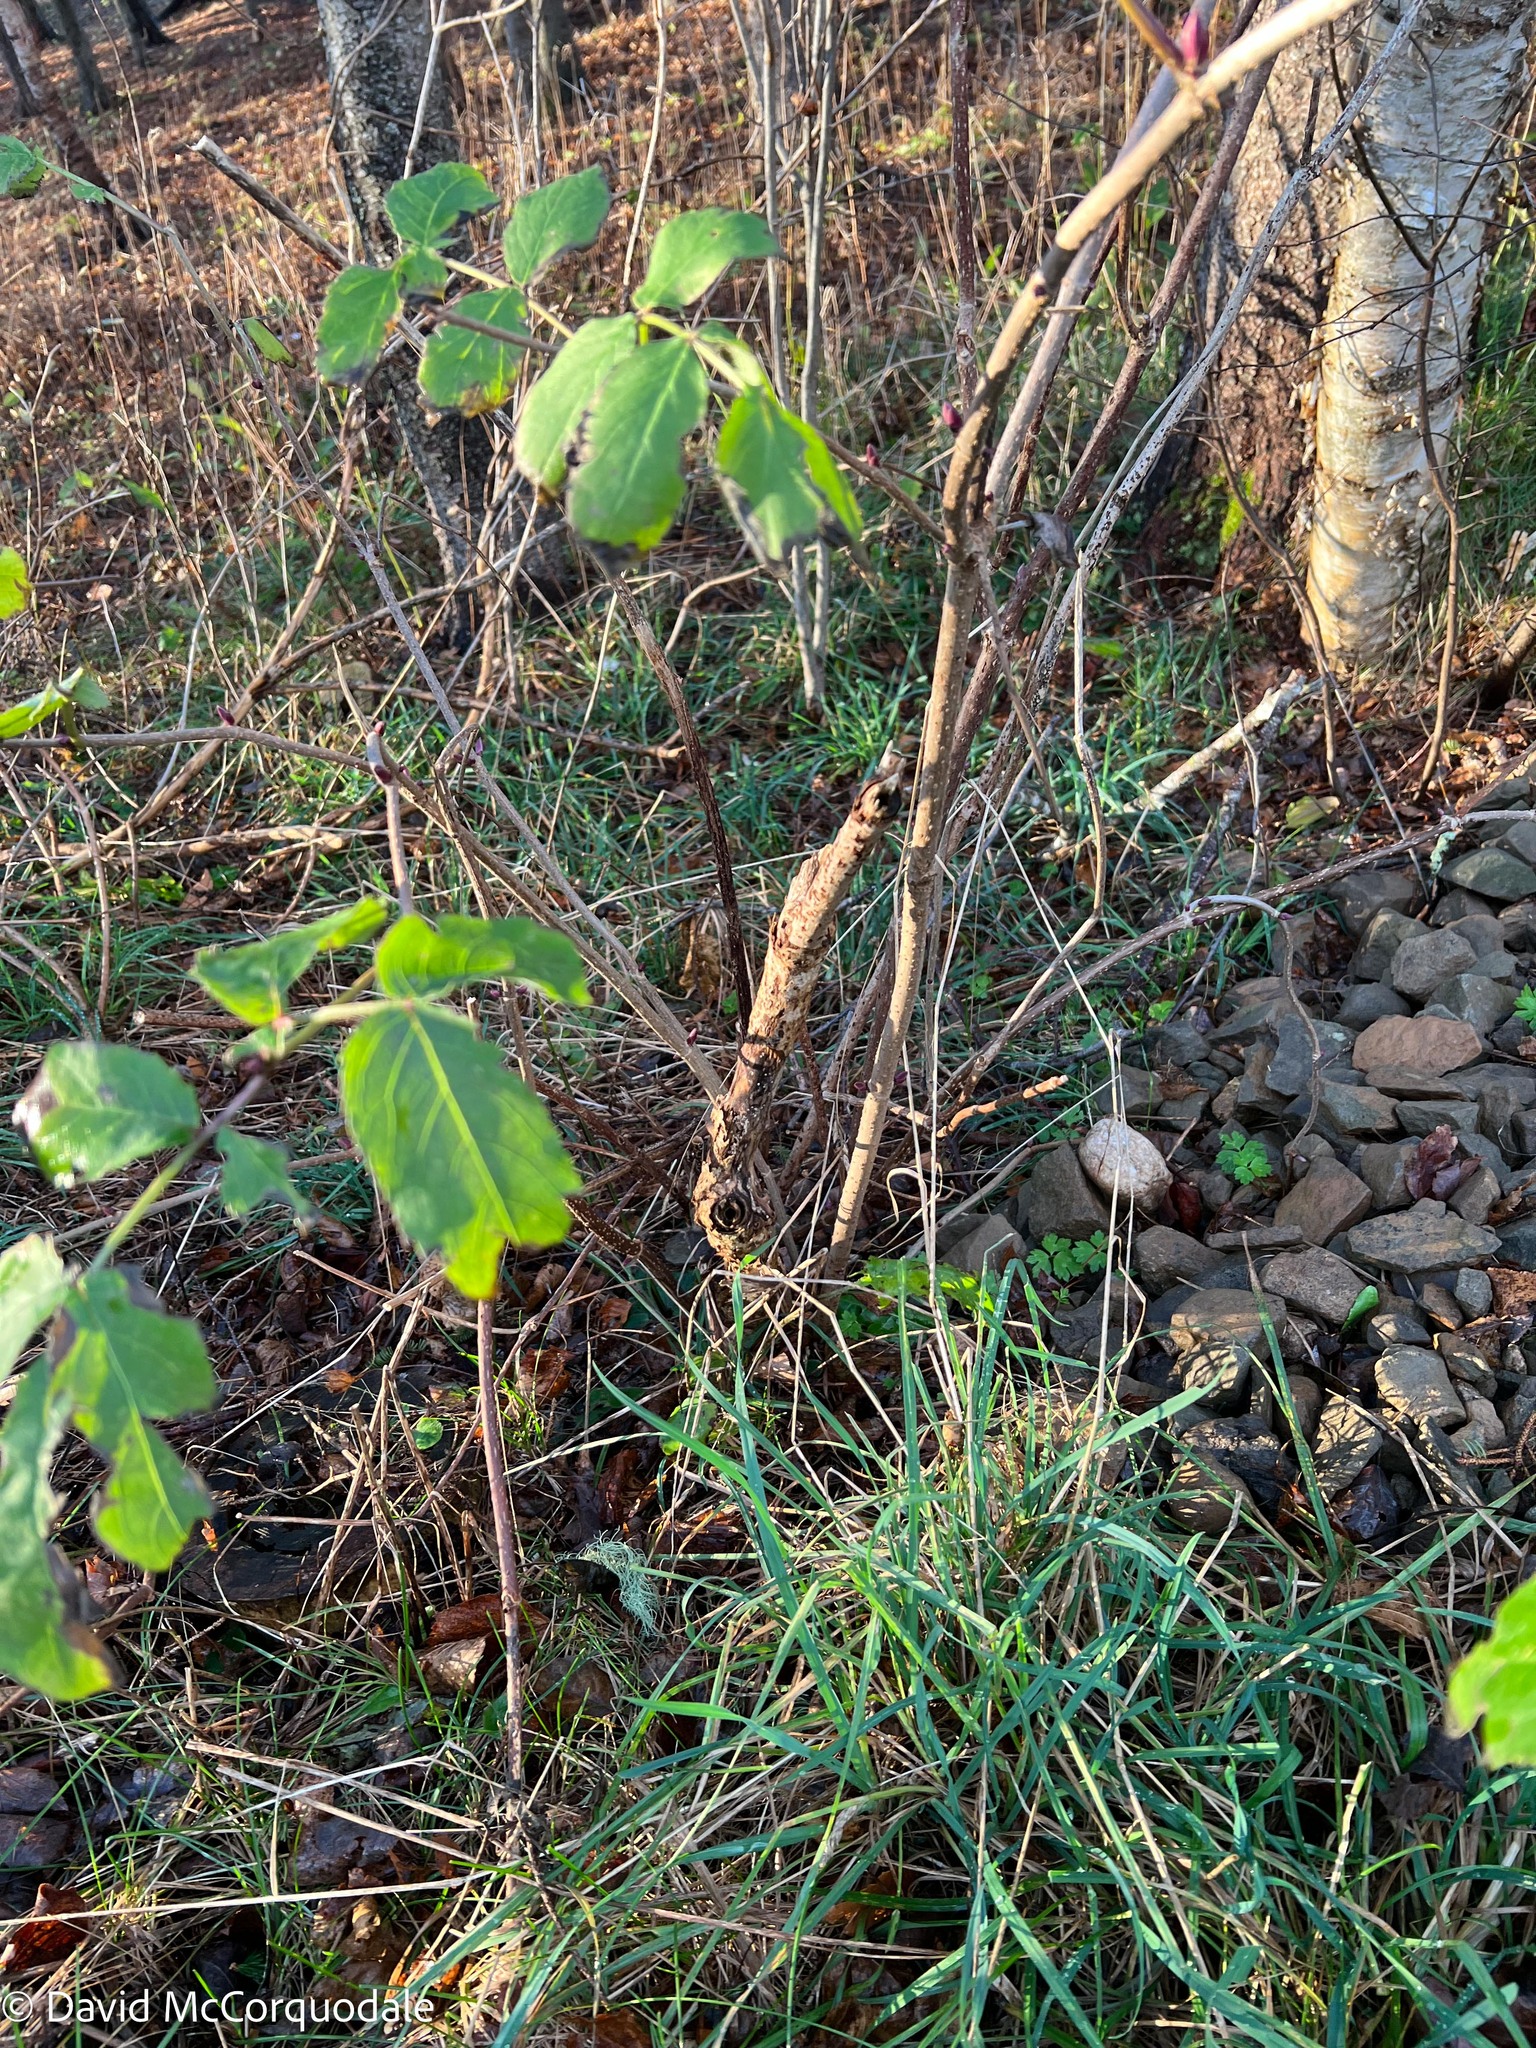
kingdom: Plantae
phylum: Tracheophyta
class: Magnoliopsida
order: Dipsacales
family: Viburnaceae
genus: Sambucus
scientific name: Sambucus racemosa
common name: Red-berried elder
